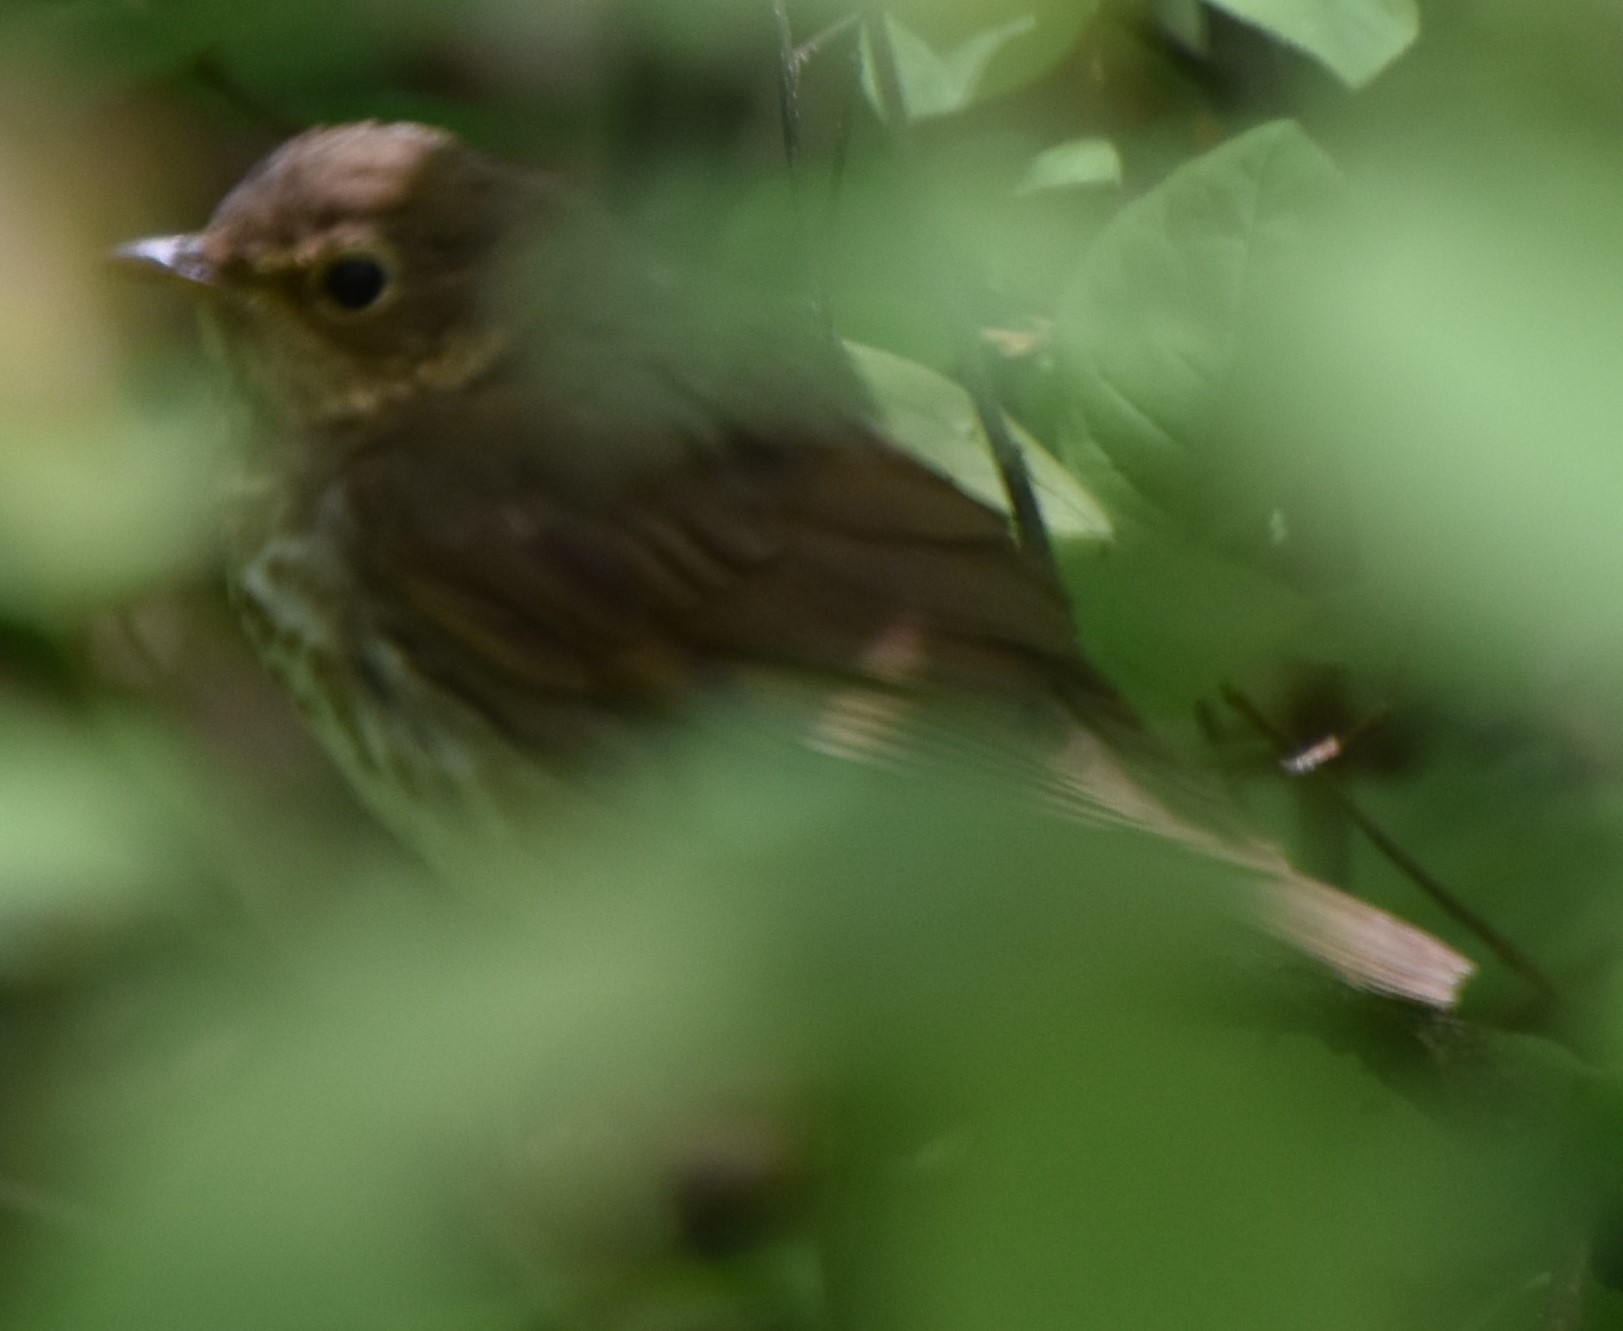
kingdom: Animalia
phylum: Chordata
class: Aves
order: Passeriformes
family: Turdidae
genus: Catharus
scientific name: Catharus guttatus
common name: Hermit thrush
